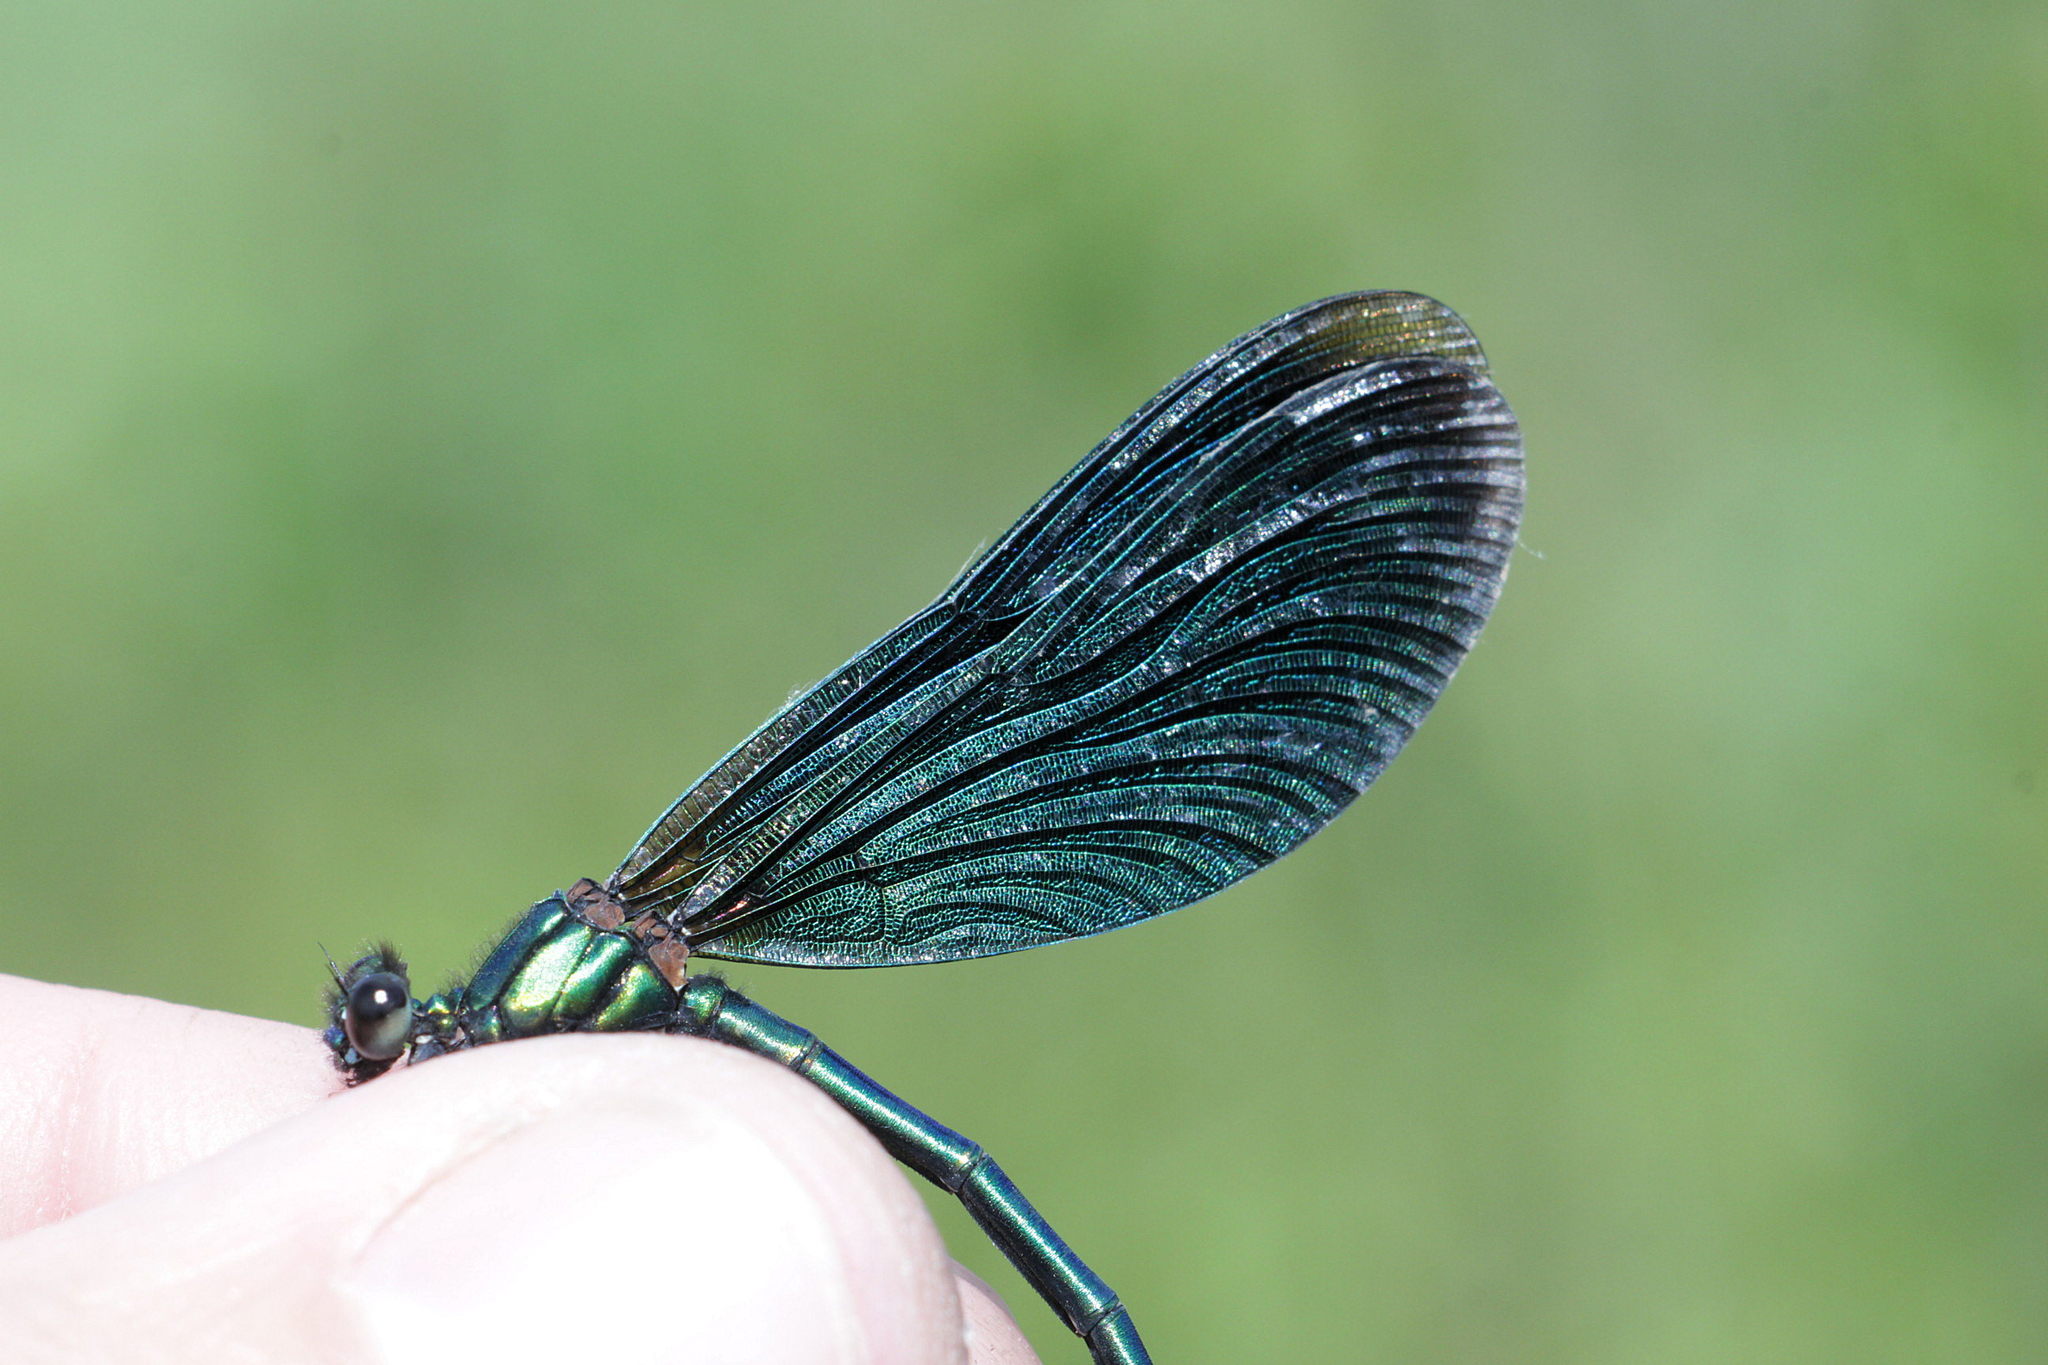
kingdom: Animalia
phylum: Arthropoda
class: Insecta
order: Odonata
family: Calopterygidae
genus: Calopteryx
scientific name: Calopteryx virgo
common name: Beautiful demoiselle
